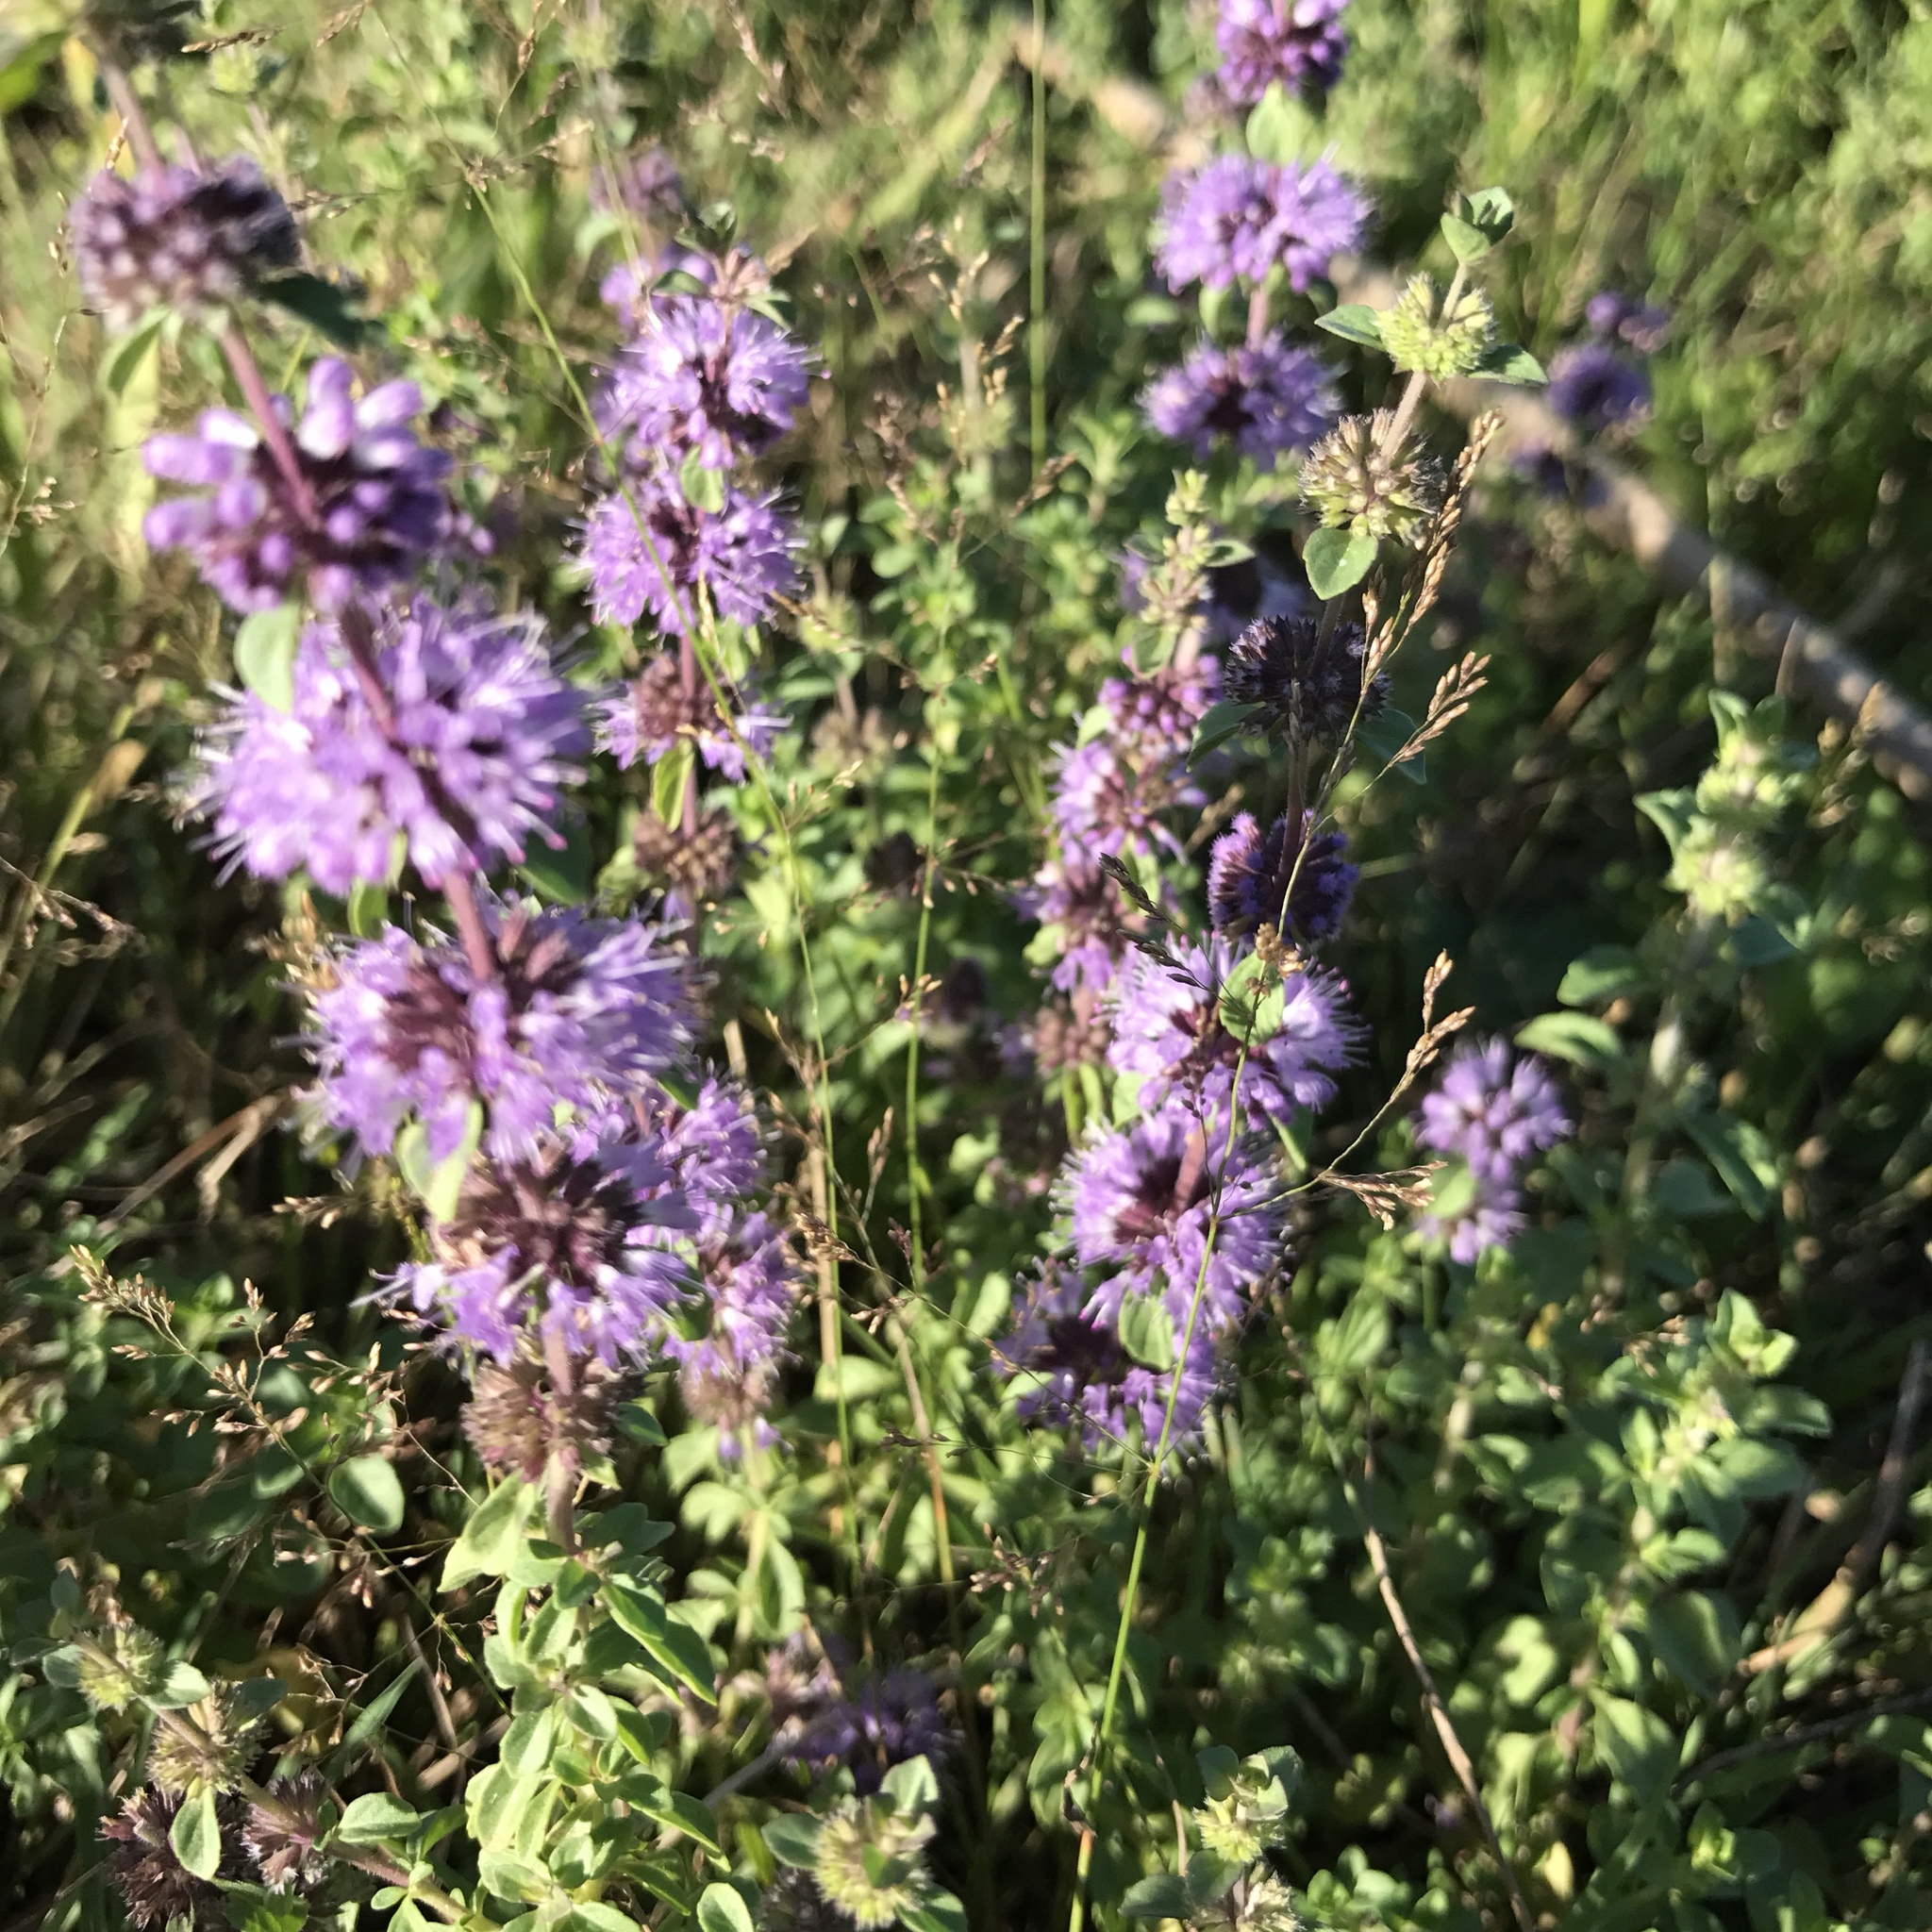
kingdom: Plantae
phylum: Tracheophyta
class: Magnoliopsida
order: Lamiales
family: Lamiaceae
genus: Mentha
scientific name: Mentha pulegium
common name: Pennyroyal
